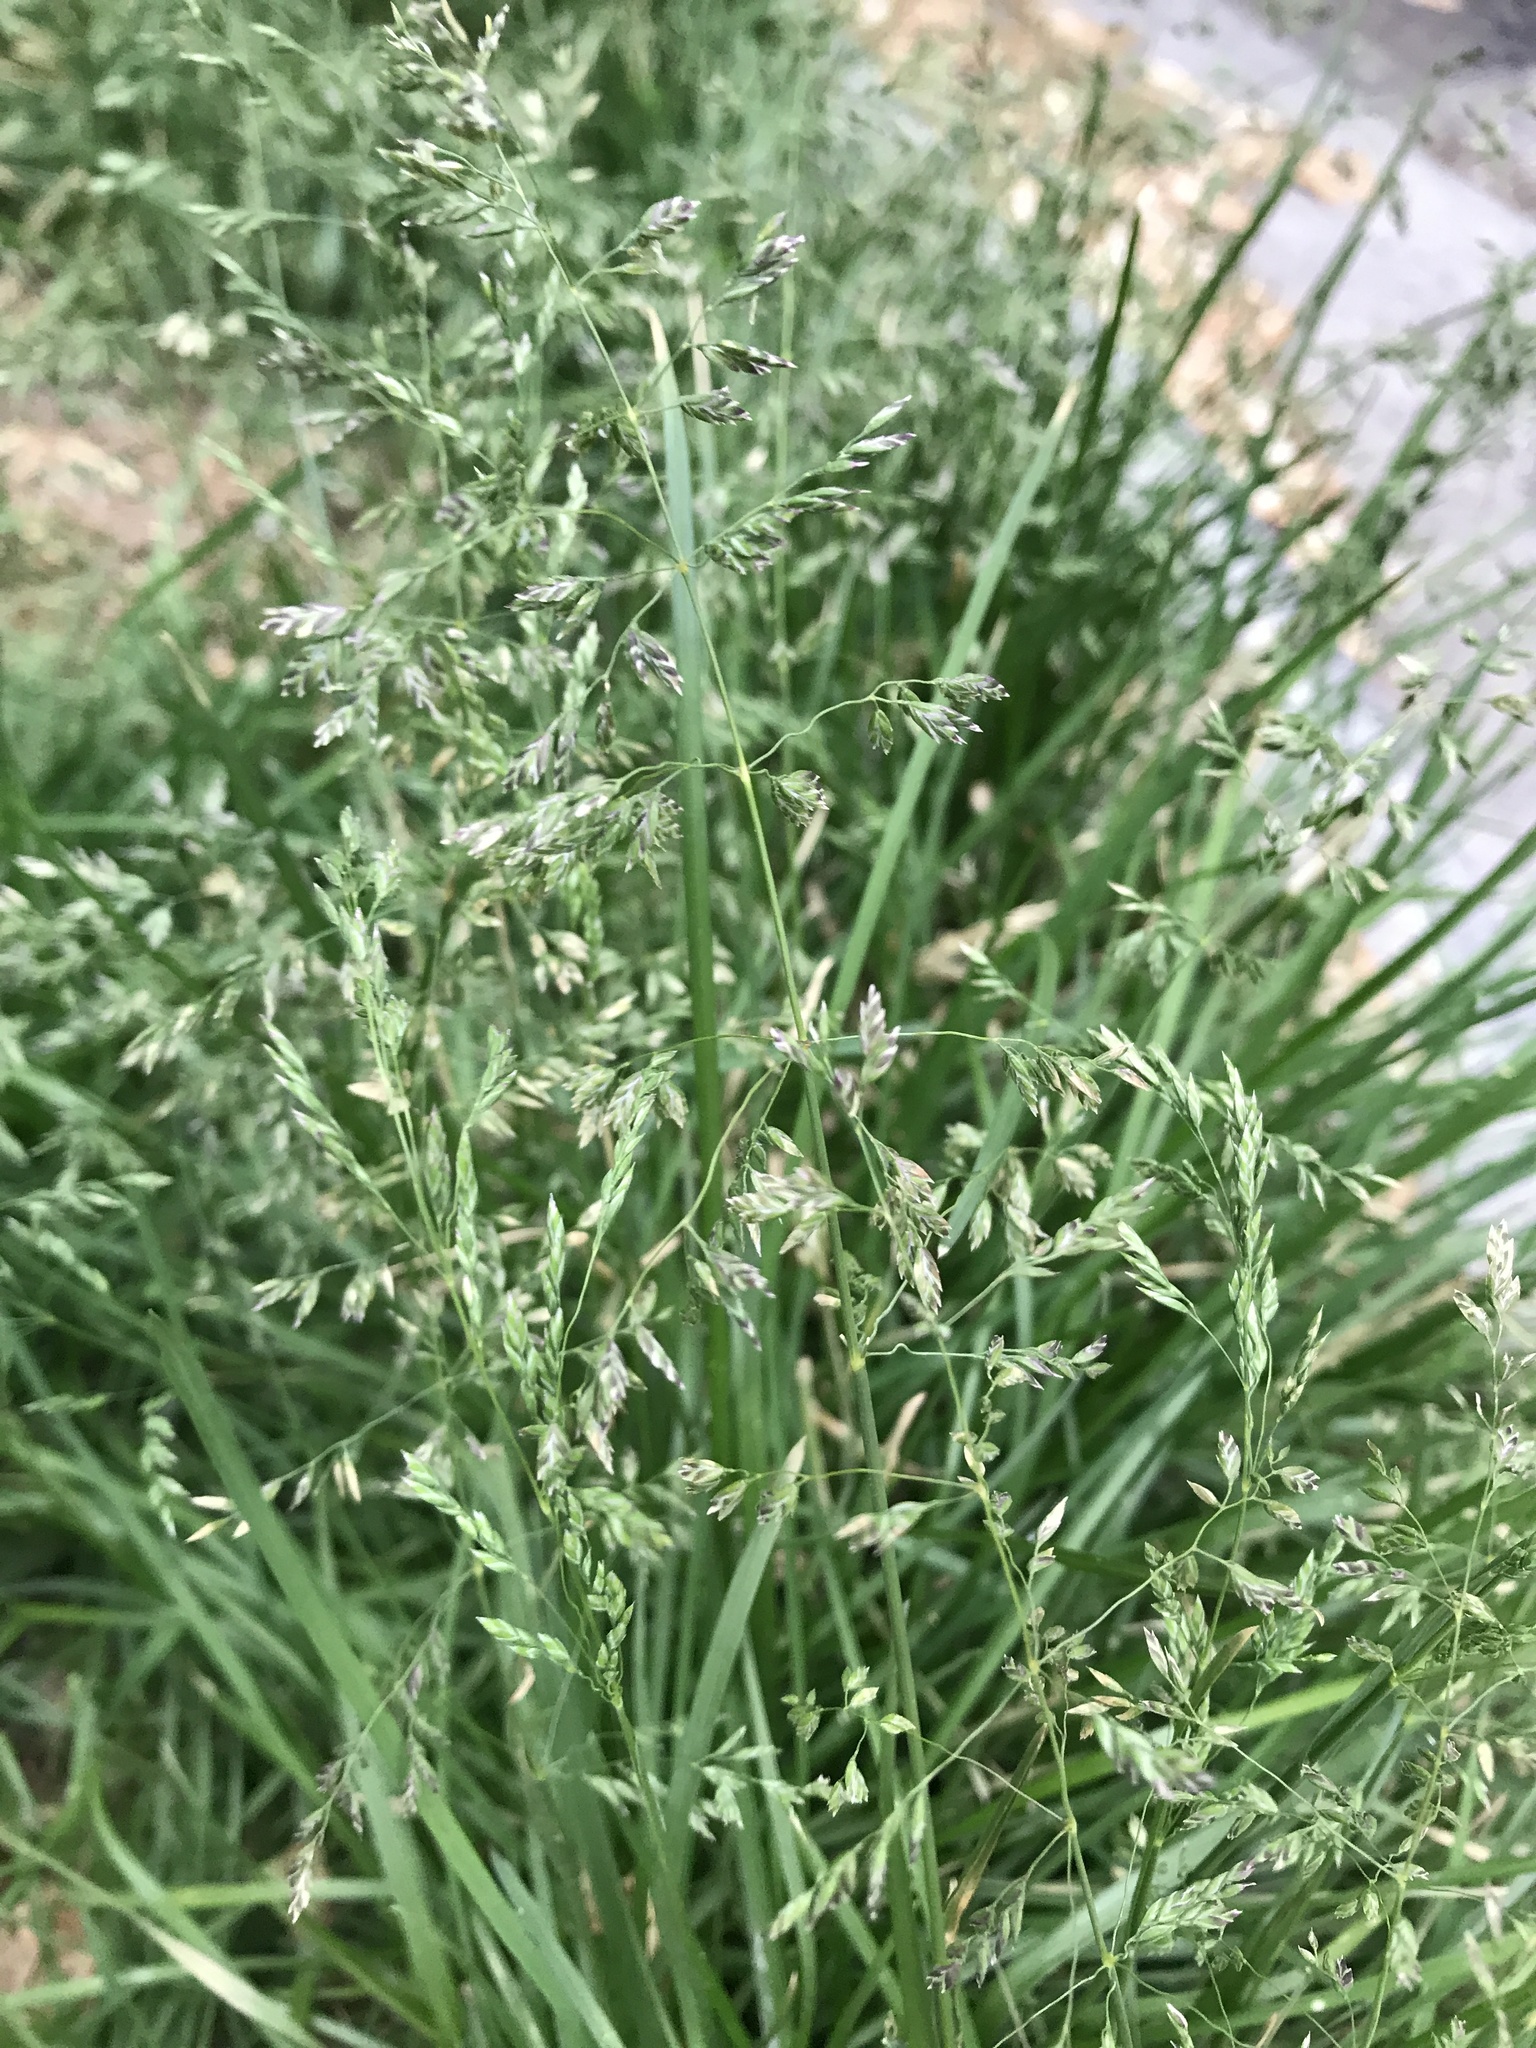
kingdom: Plantae
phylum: Tracheophyta
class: Liliopsida
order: Poales
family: Poaceae
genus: Poa
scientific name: Poa pratensis
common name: Kentucky bluegrass
